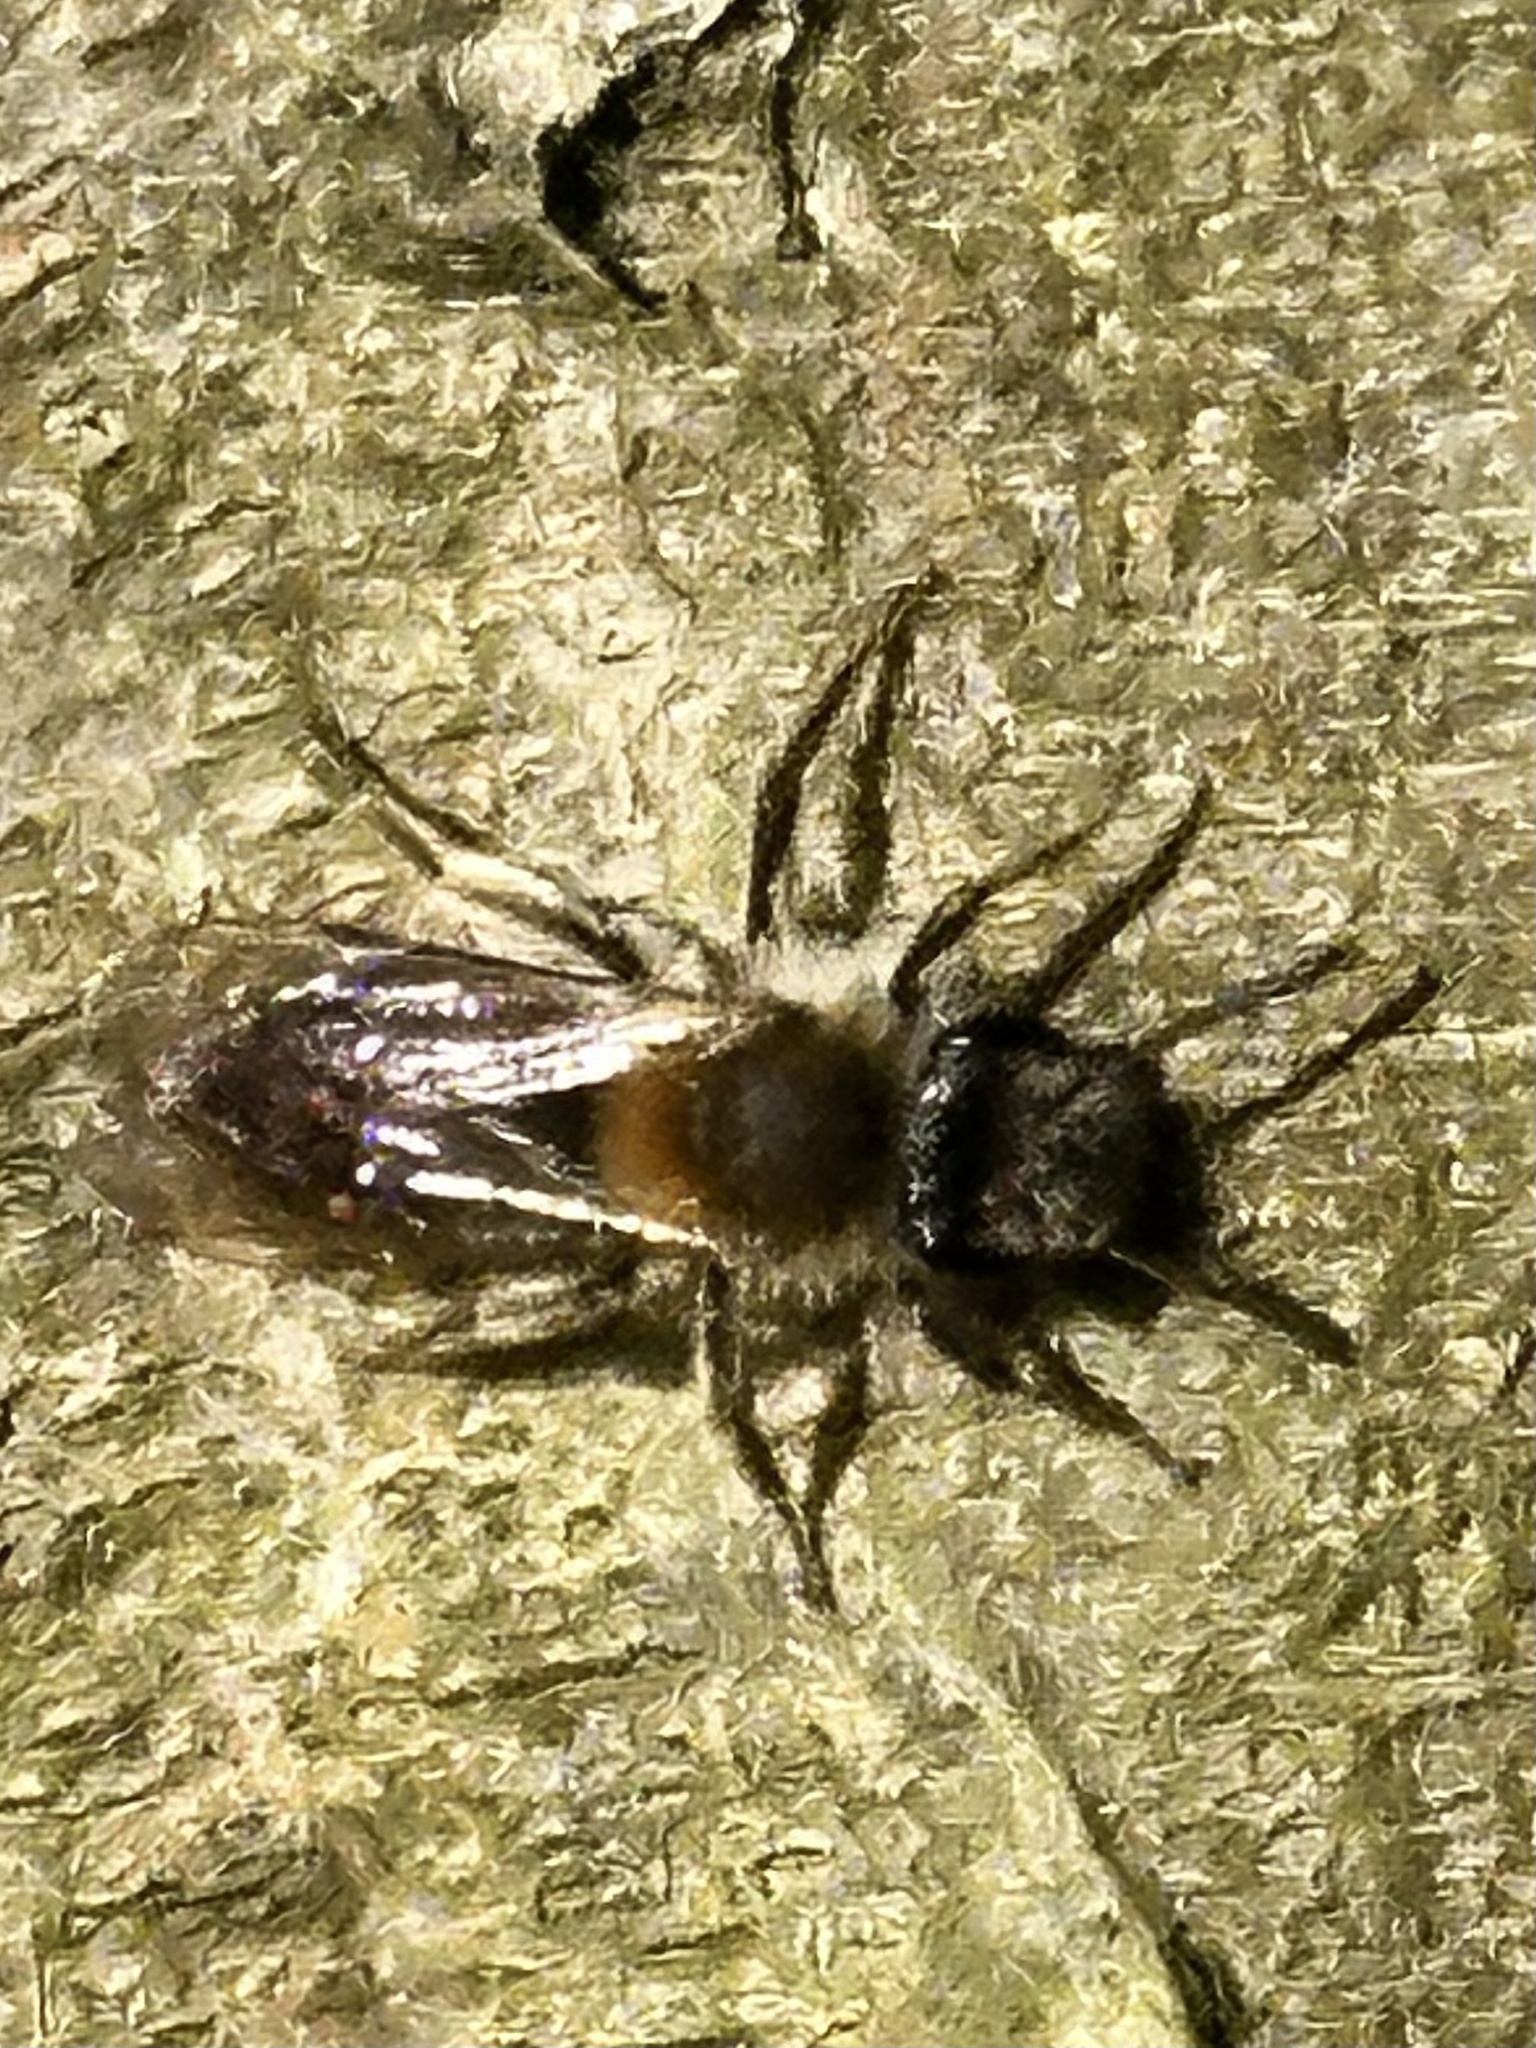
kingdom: Animalia
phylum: Arthropoda
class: Insecta
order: Hymenoptera
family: Andrenidae
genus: Andrena
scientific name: Andrena helvola
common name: Coppice mining bee
